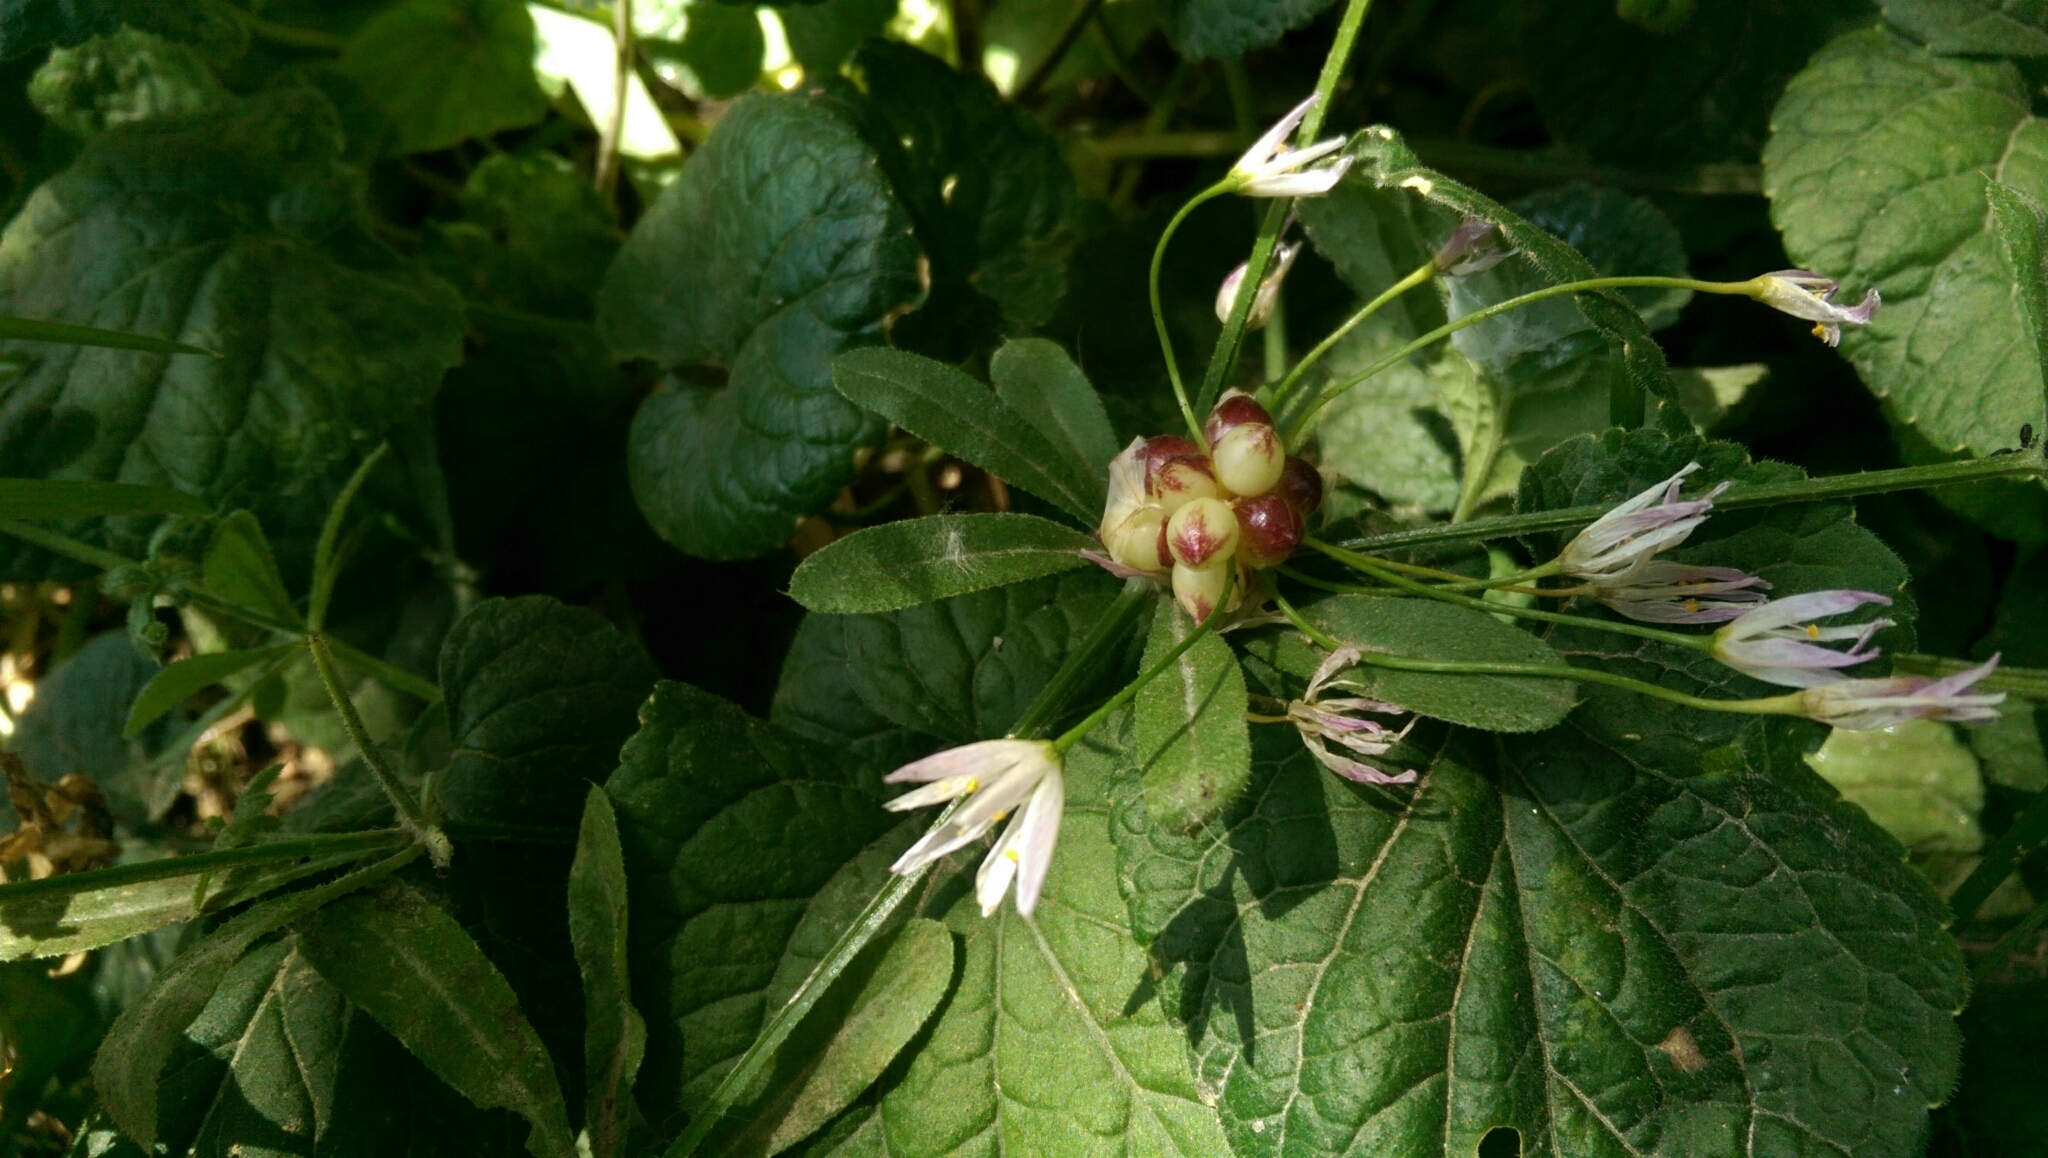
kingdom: Plantae
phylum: Tracheophyta
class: Liliopsida
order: Asparagales
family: Amaryllidaceae
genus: Allium
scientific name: Allium roseum
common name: Rosy garlic
